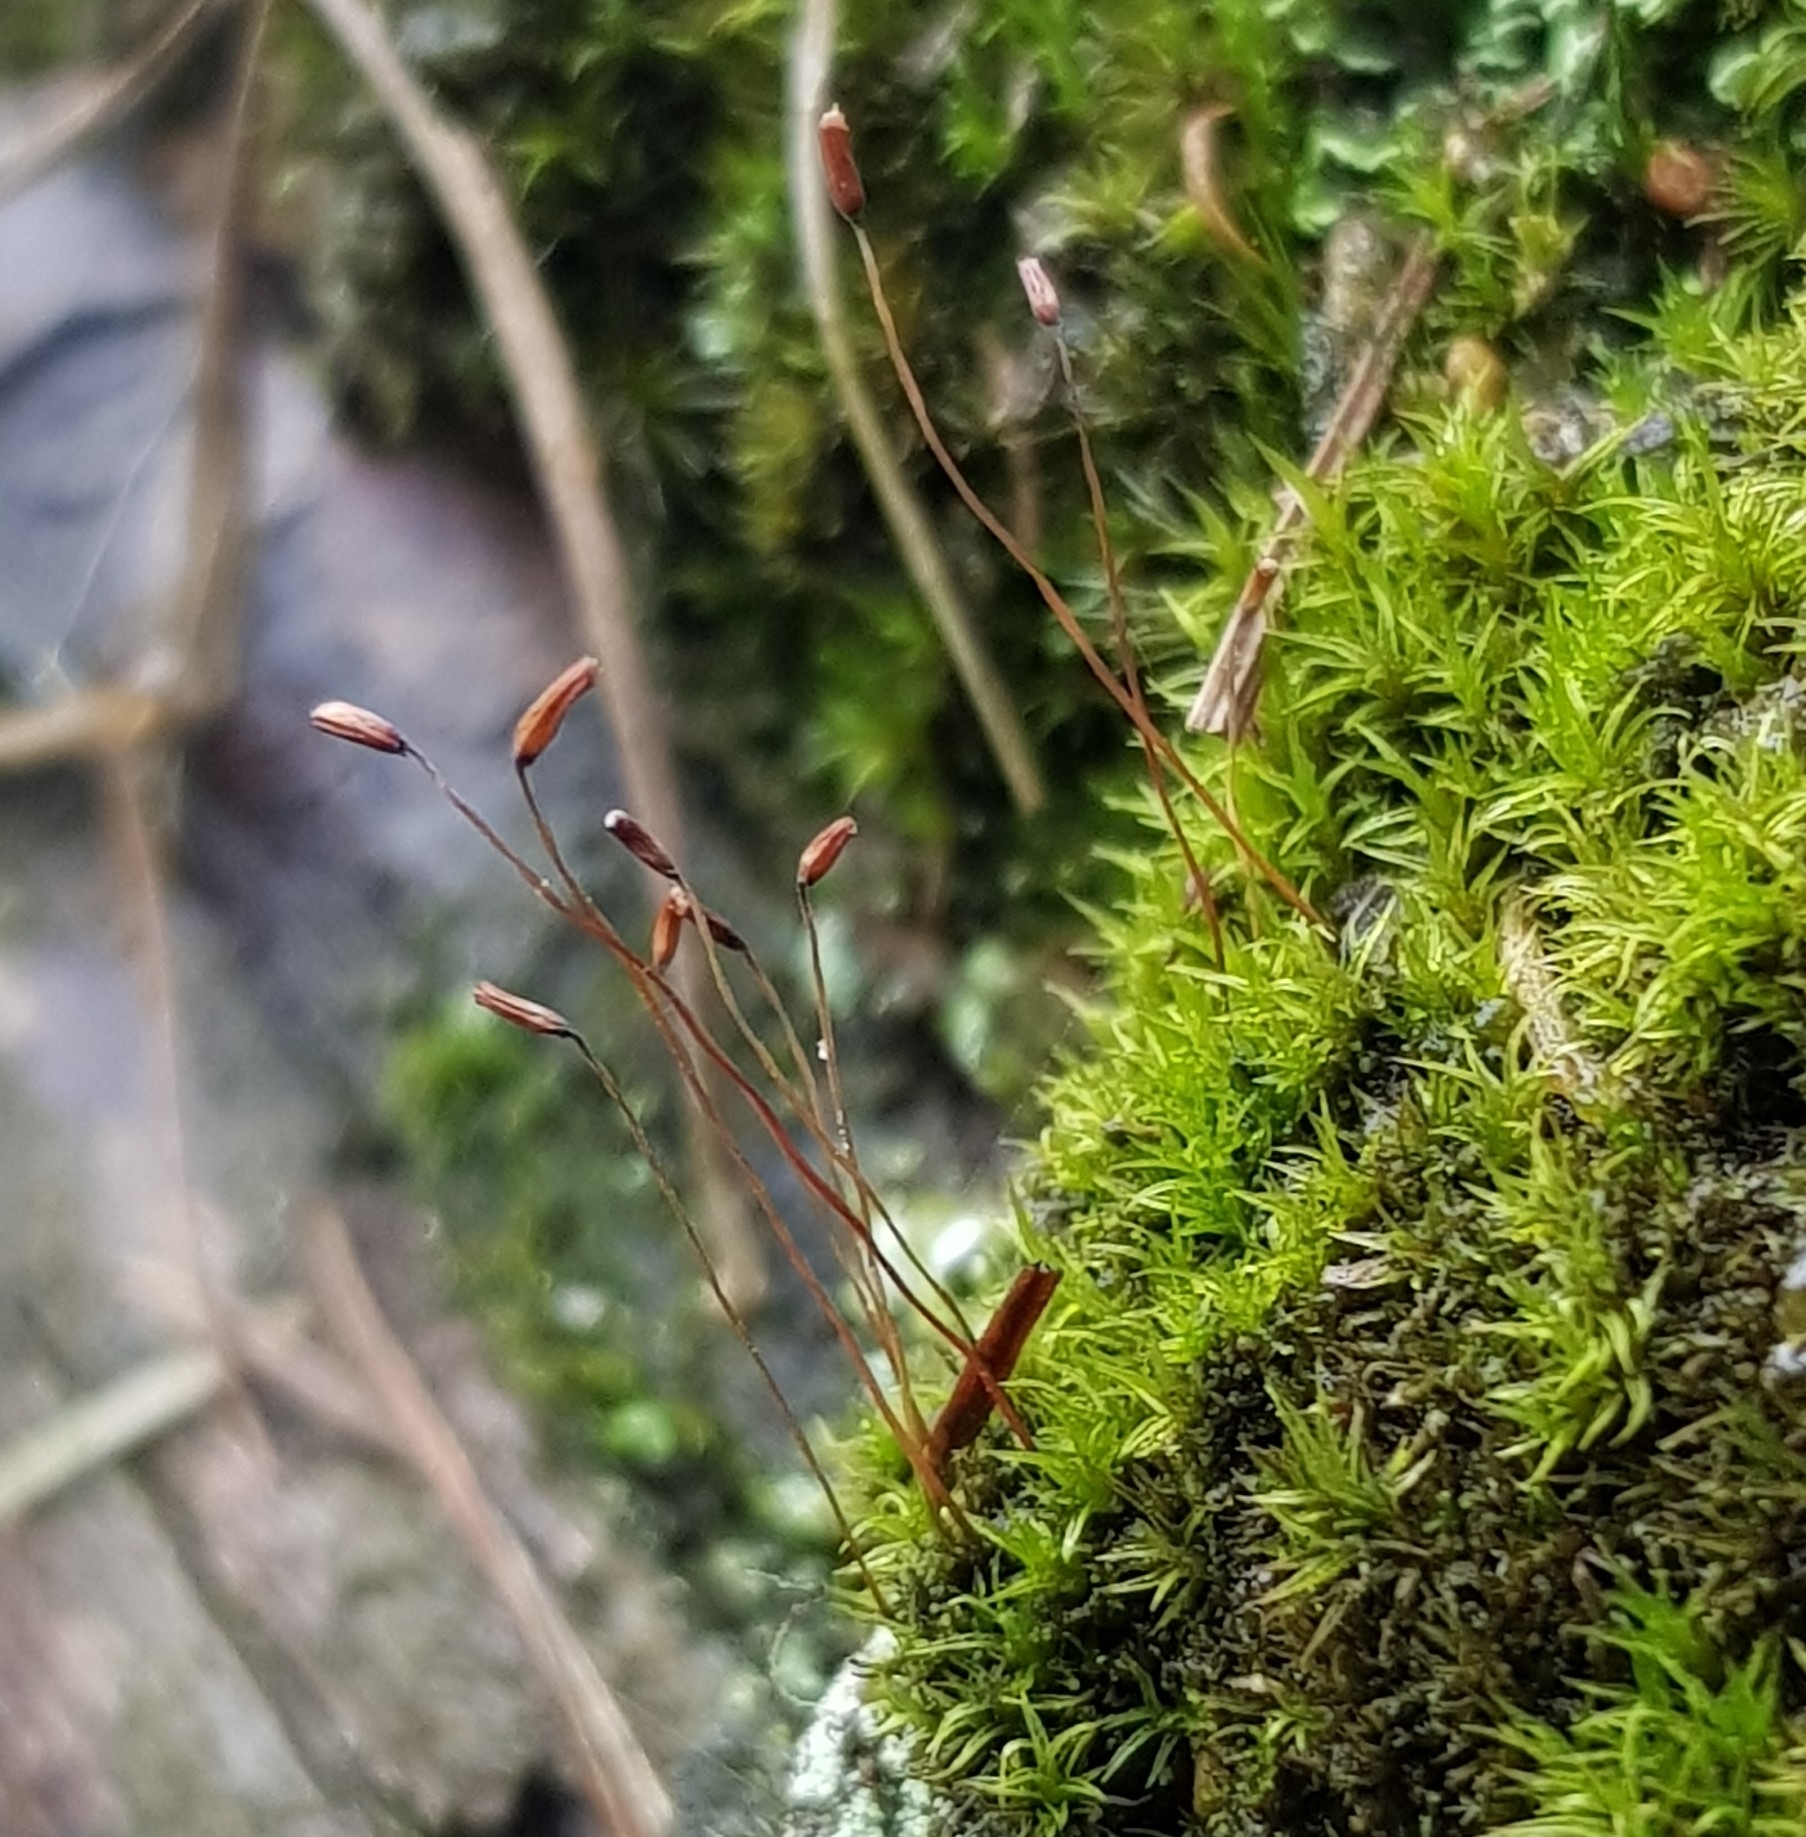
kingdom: Plantae
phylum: Bryophyta
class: Bryopsida
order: Dicranales
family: Ditrichaceae
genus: Ceratodon
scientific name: Ceratodon purpureus
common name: Redshank
